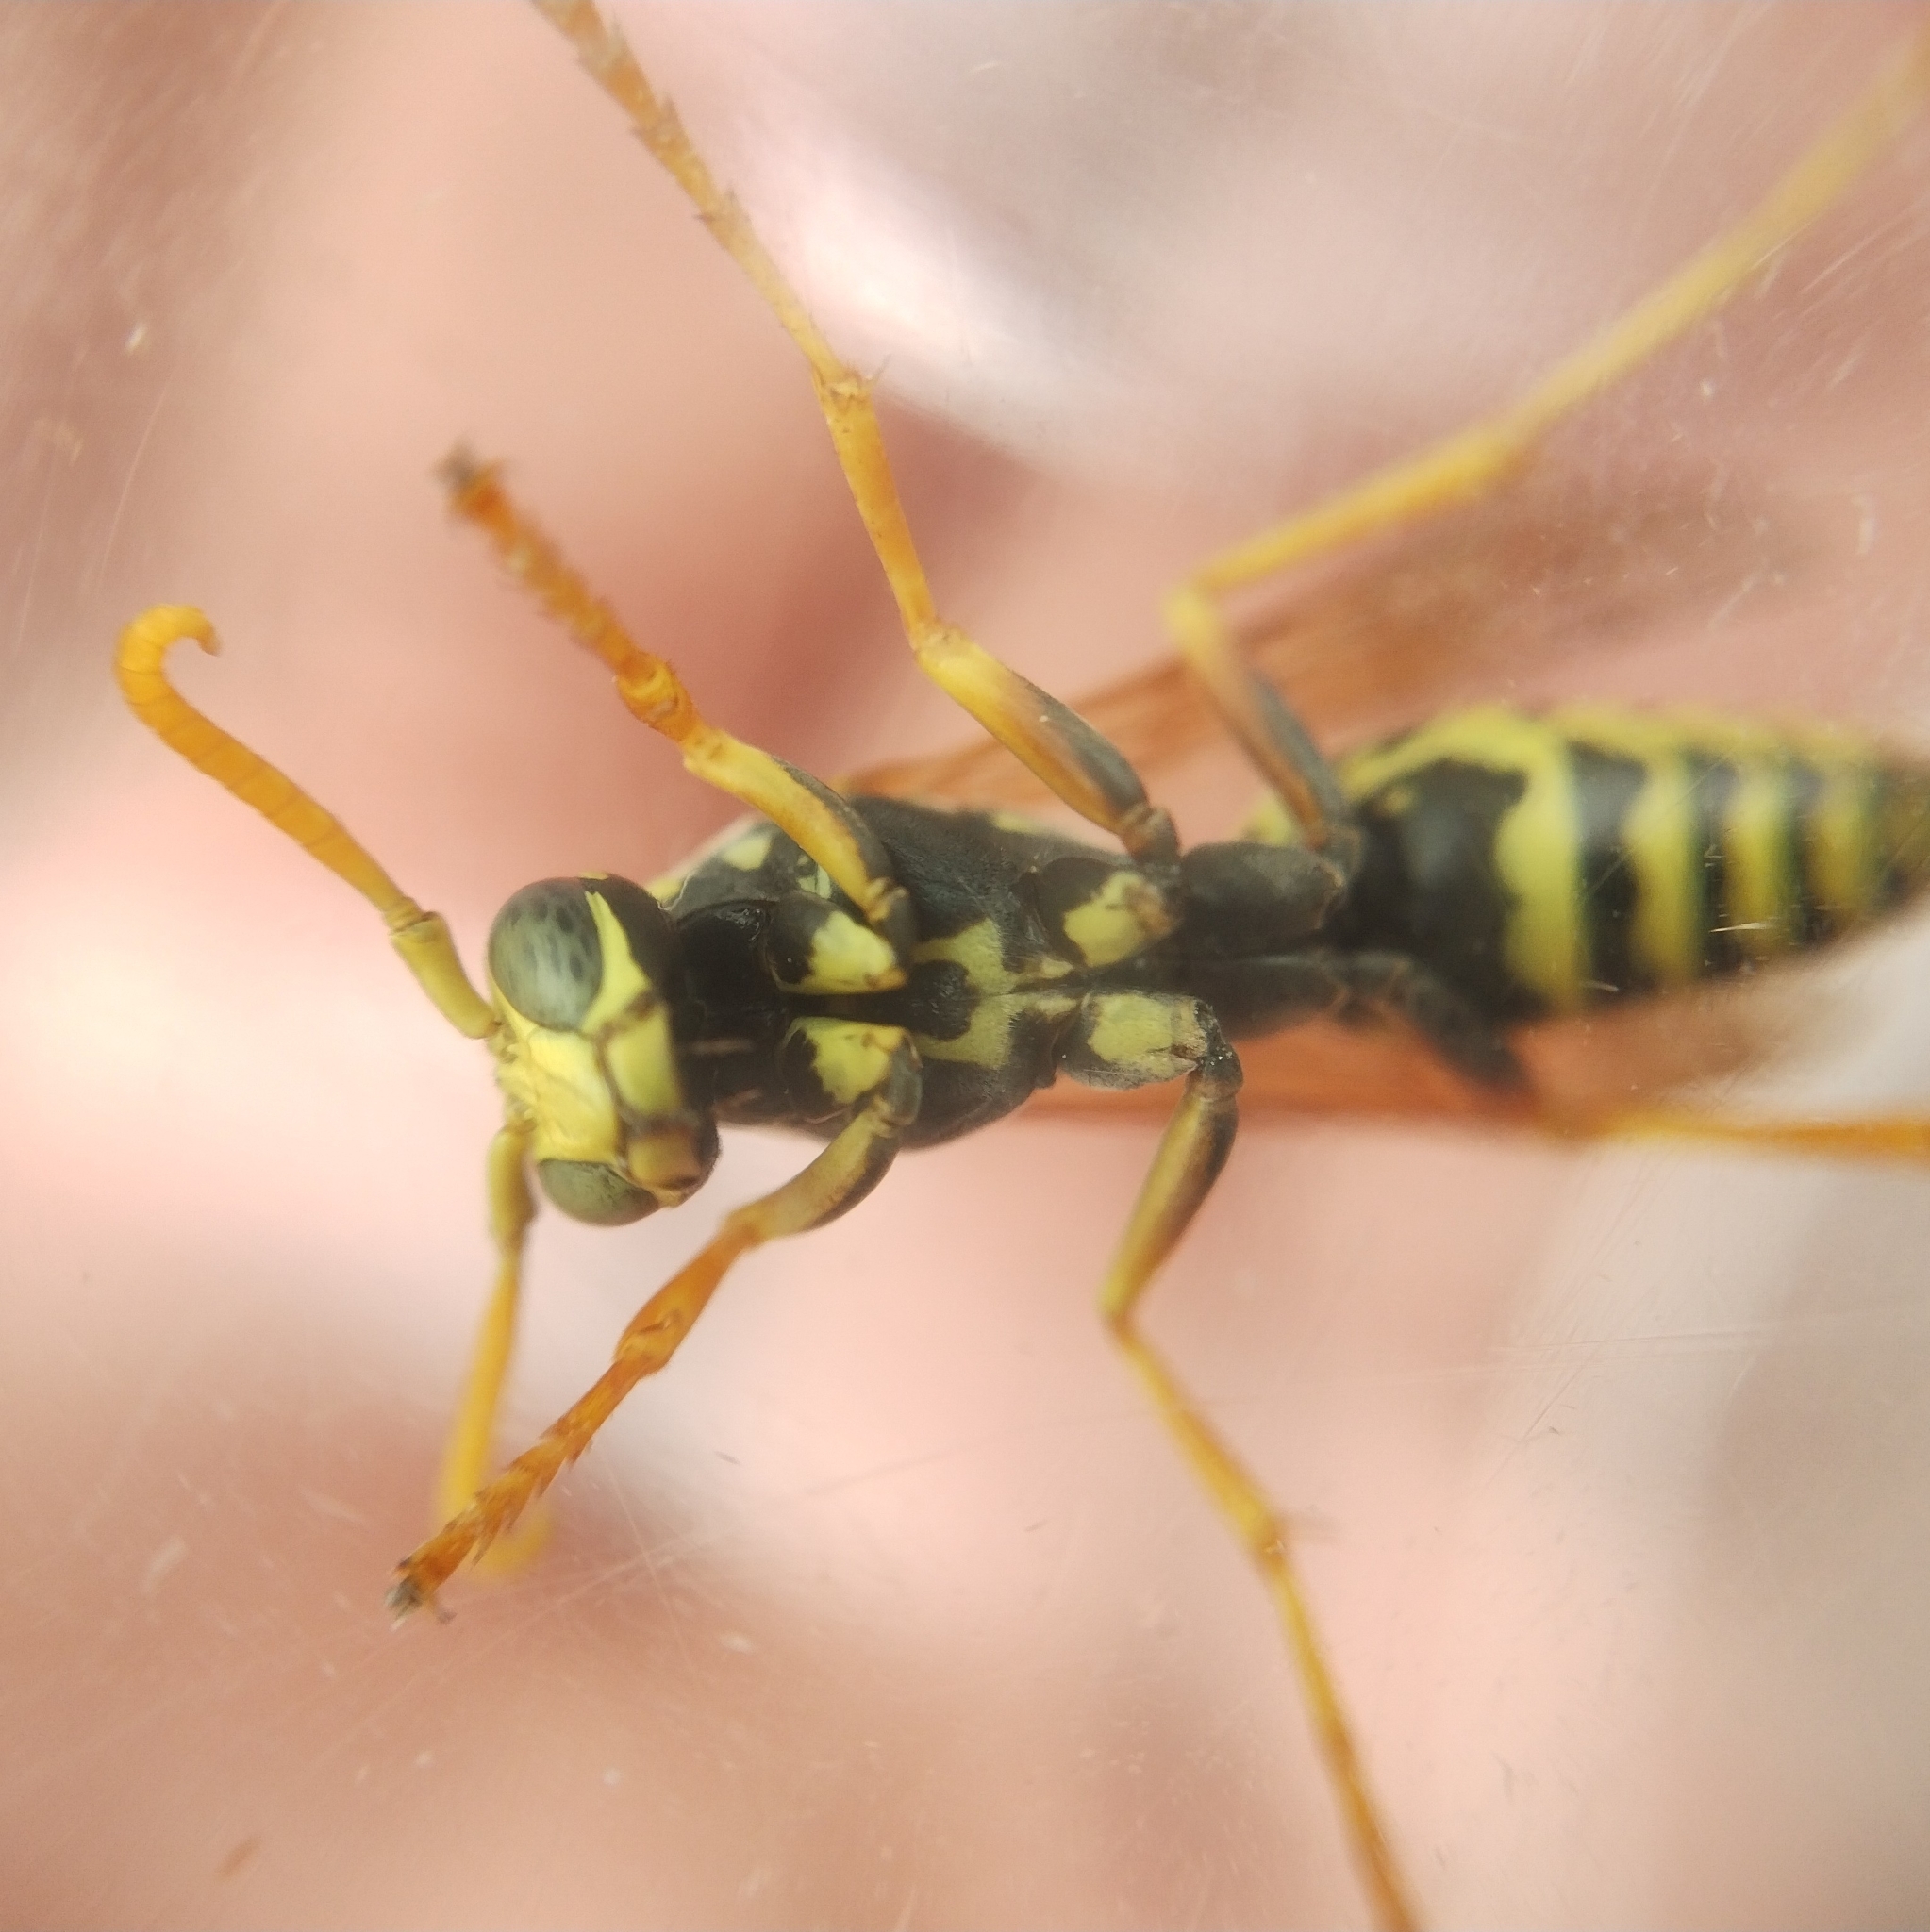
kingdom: Animalia
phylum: Arthropoda
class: Insecta
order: Hymenoptera
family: Eumenidae
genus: Polistes
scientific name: Polistes dominula
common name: Paper wasp
